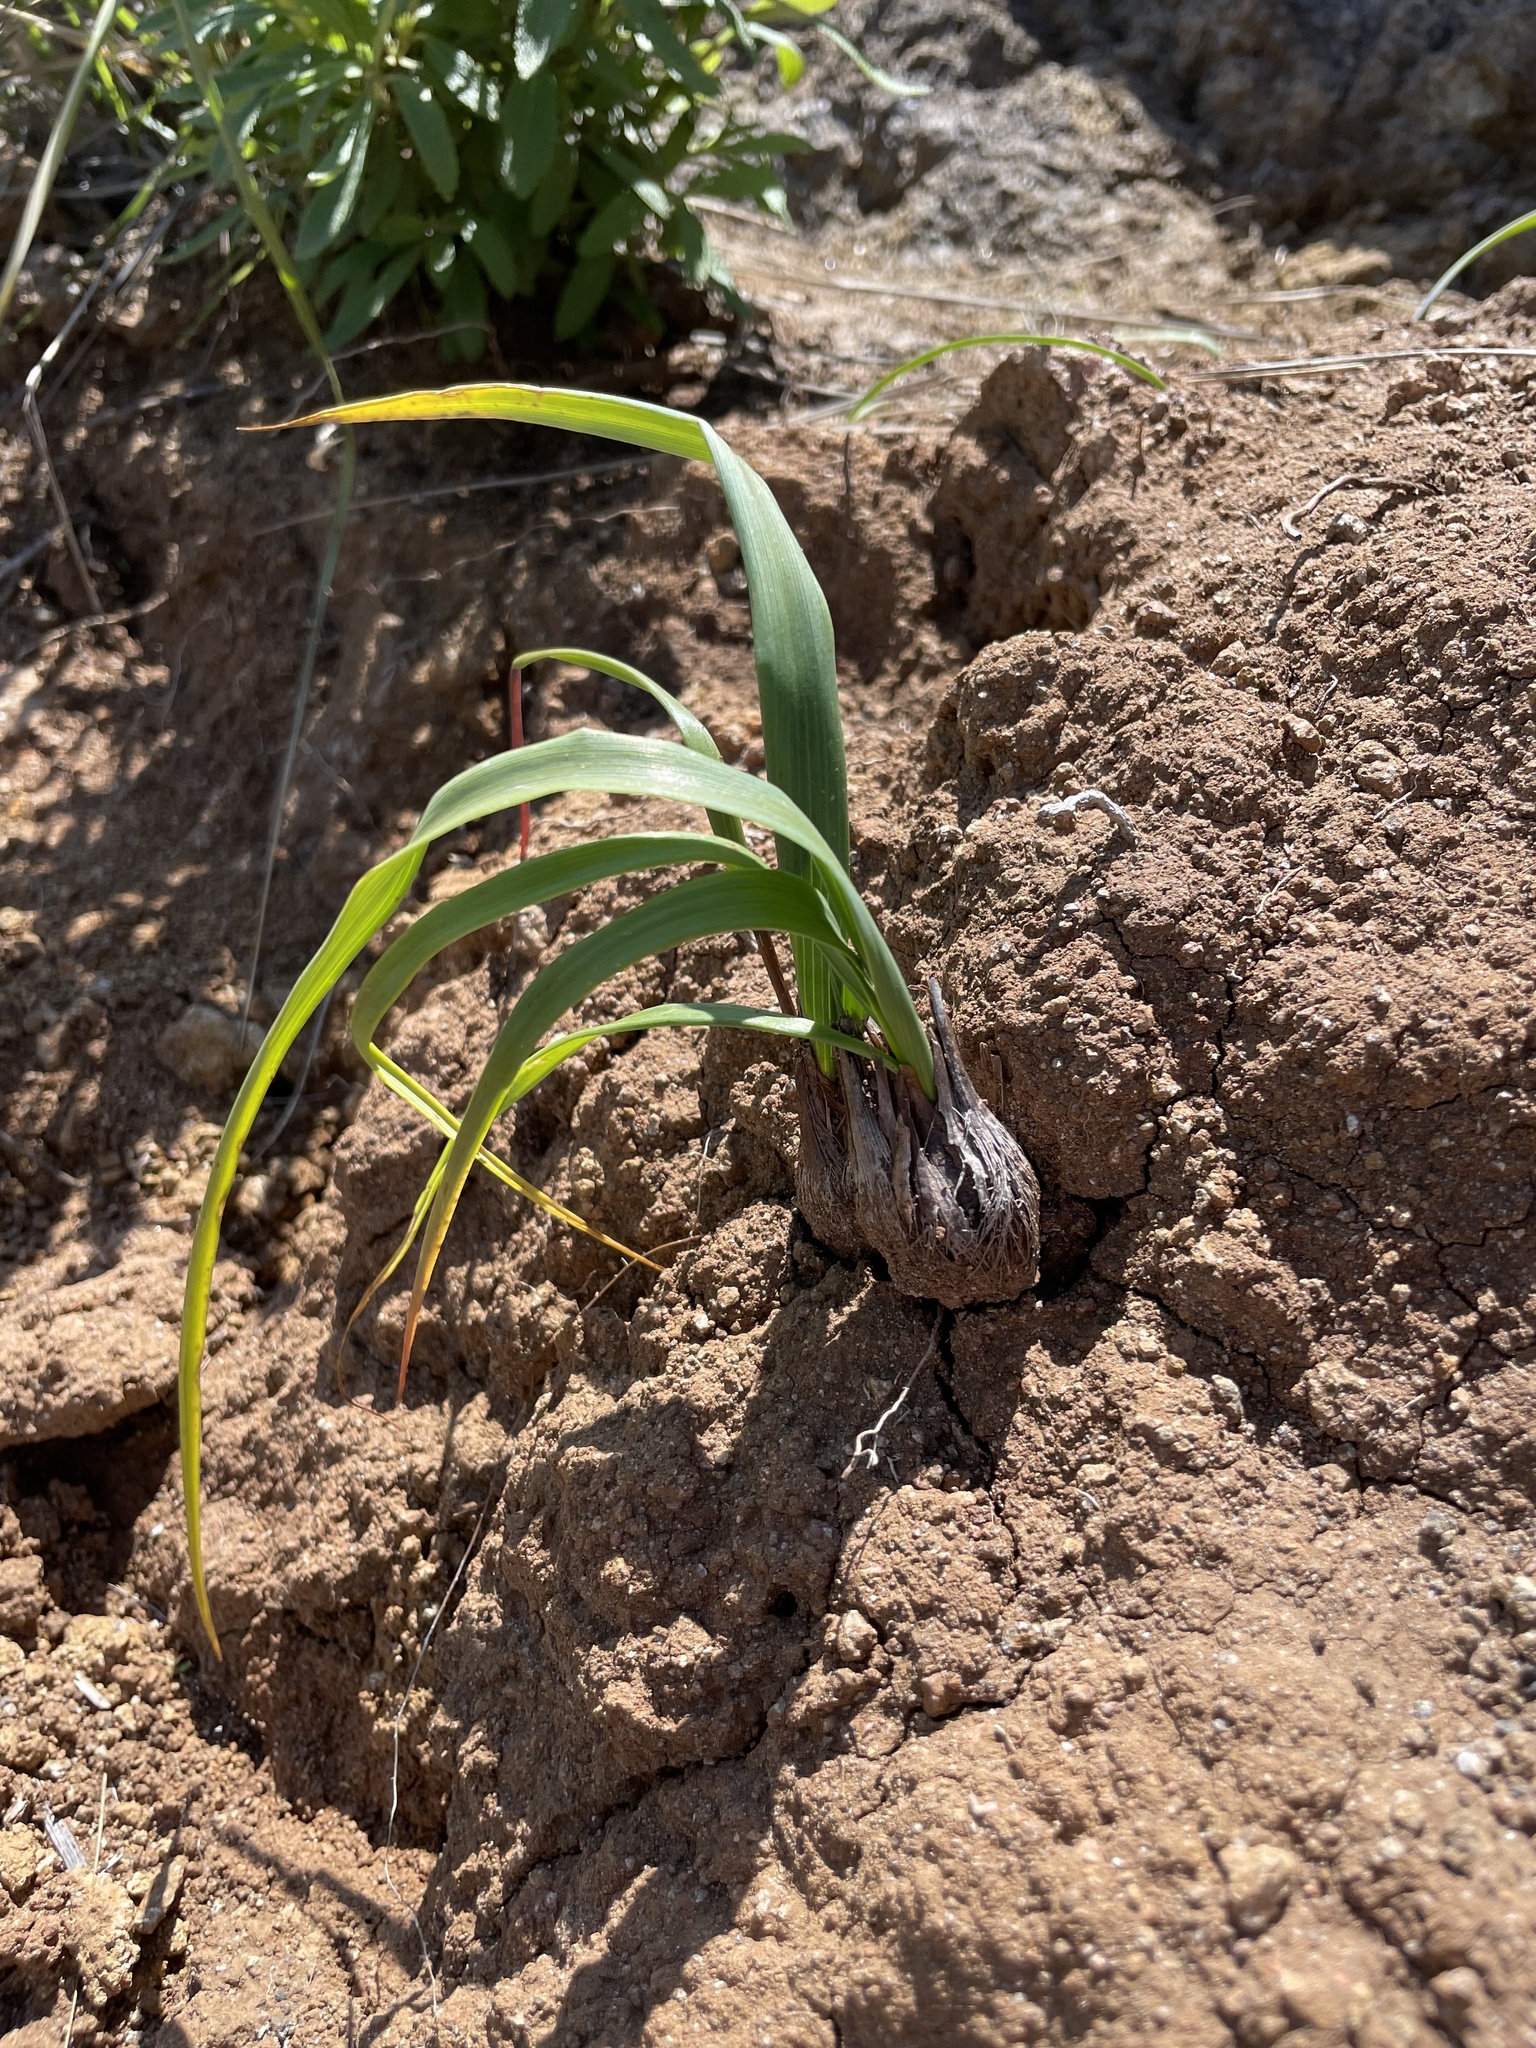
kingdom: Plantae
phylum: Tracheophyta
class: Liliopsida
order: Asparagales
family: Asparagaceae
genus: Chlorogalum
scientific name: Chlorogalum pomeridianum
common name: Amole
